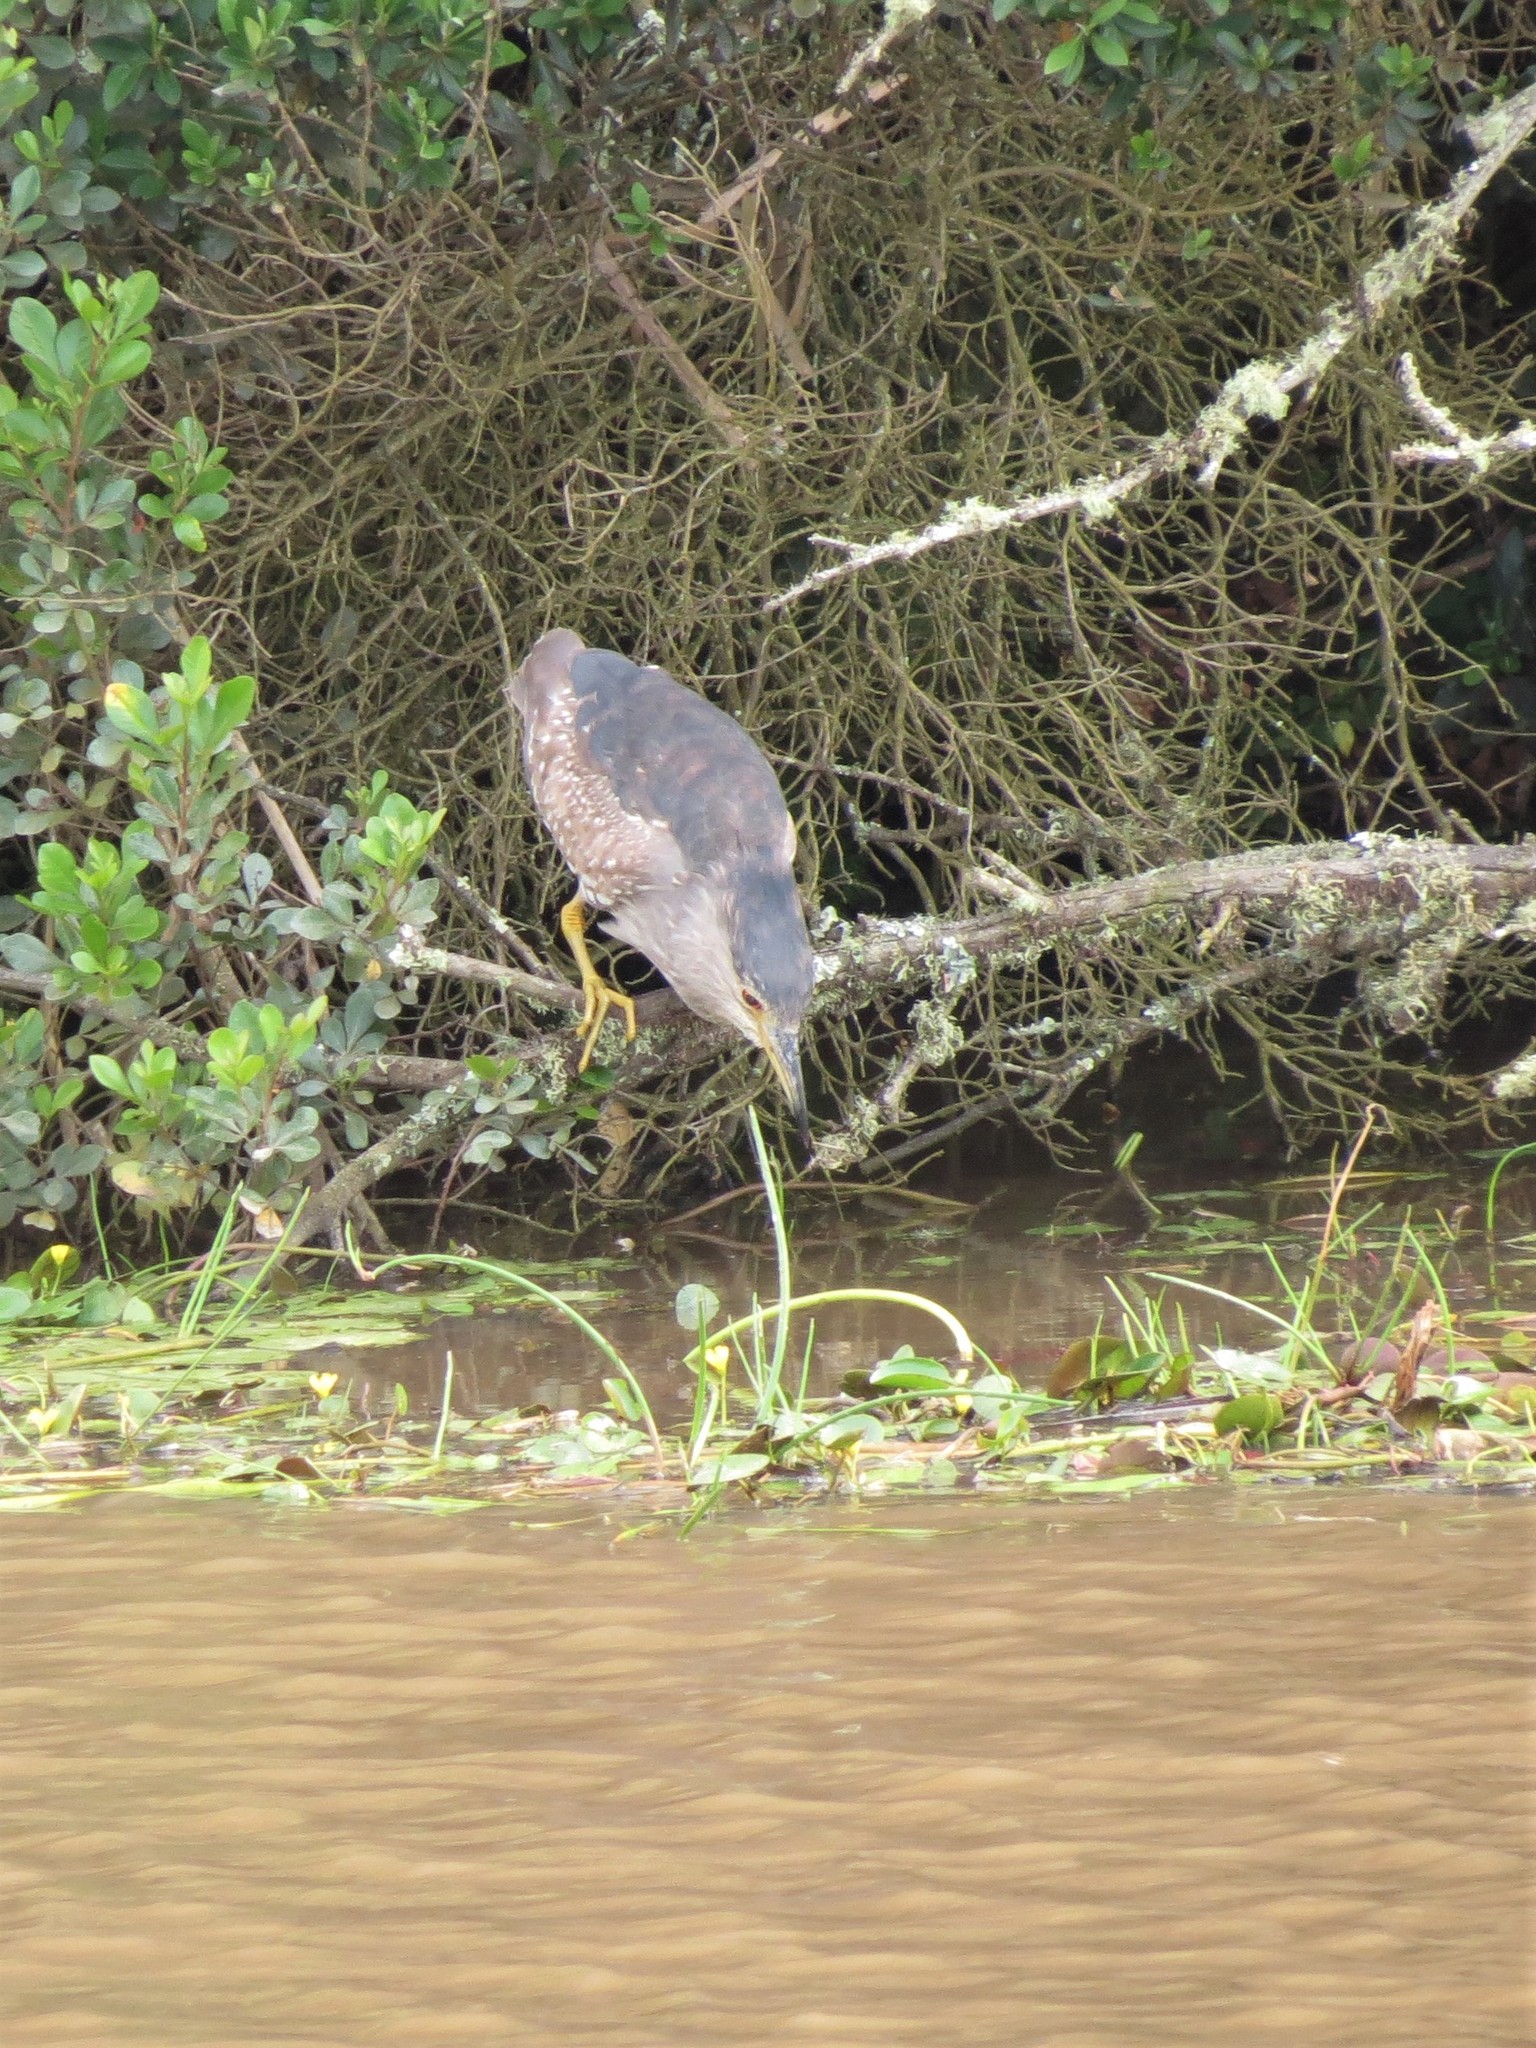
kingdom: Animalia
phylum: Chordata
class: Aves
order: Pelecaniformes
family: Ardeidae
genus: Nycticorax
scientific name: Nycticorax nycticorax
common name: Black-crowned night heron
